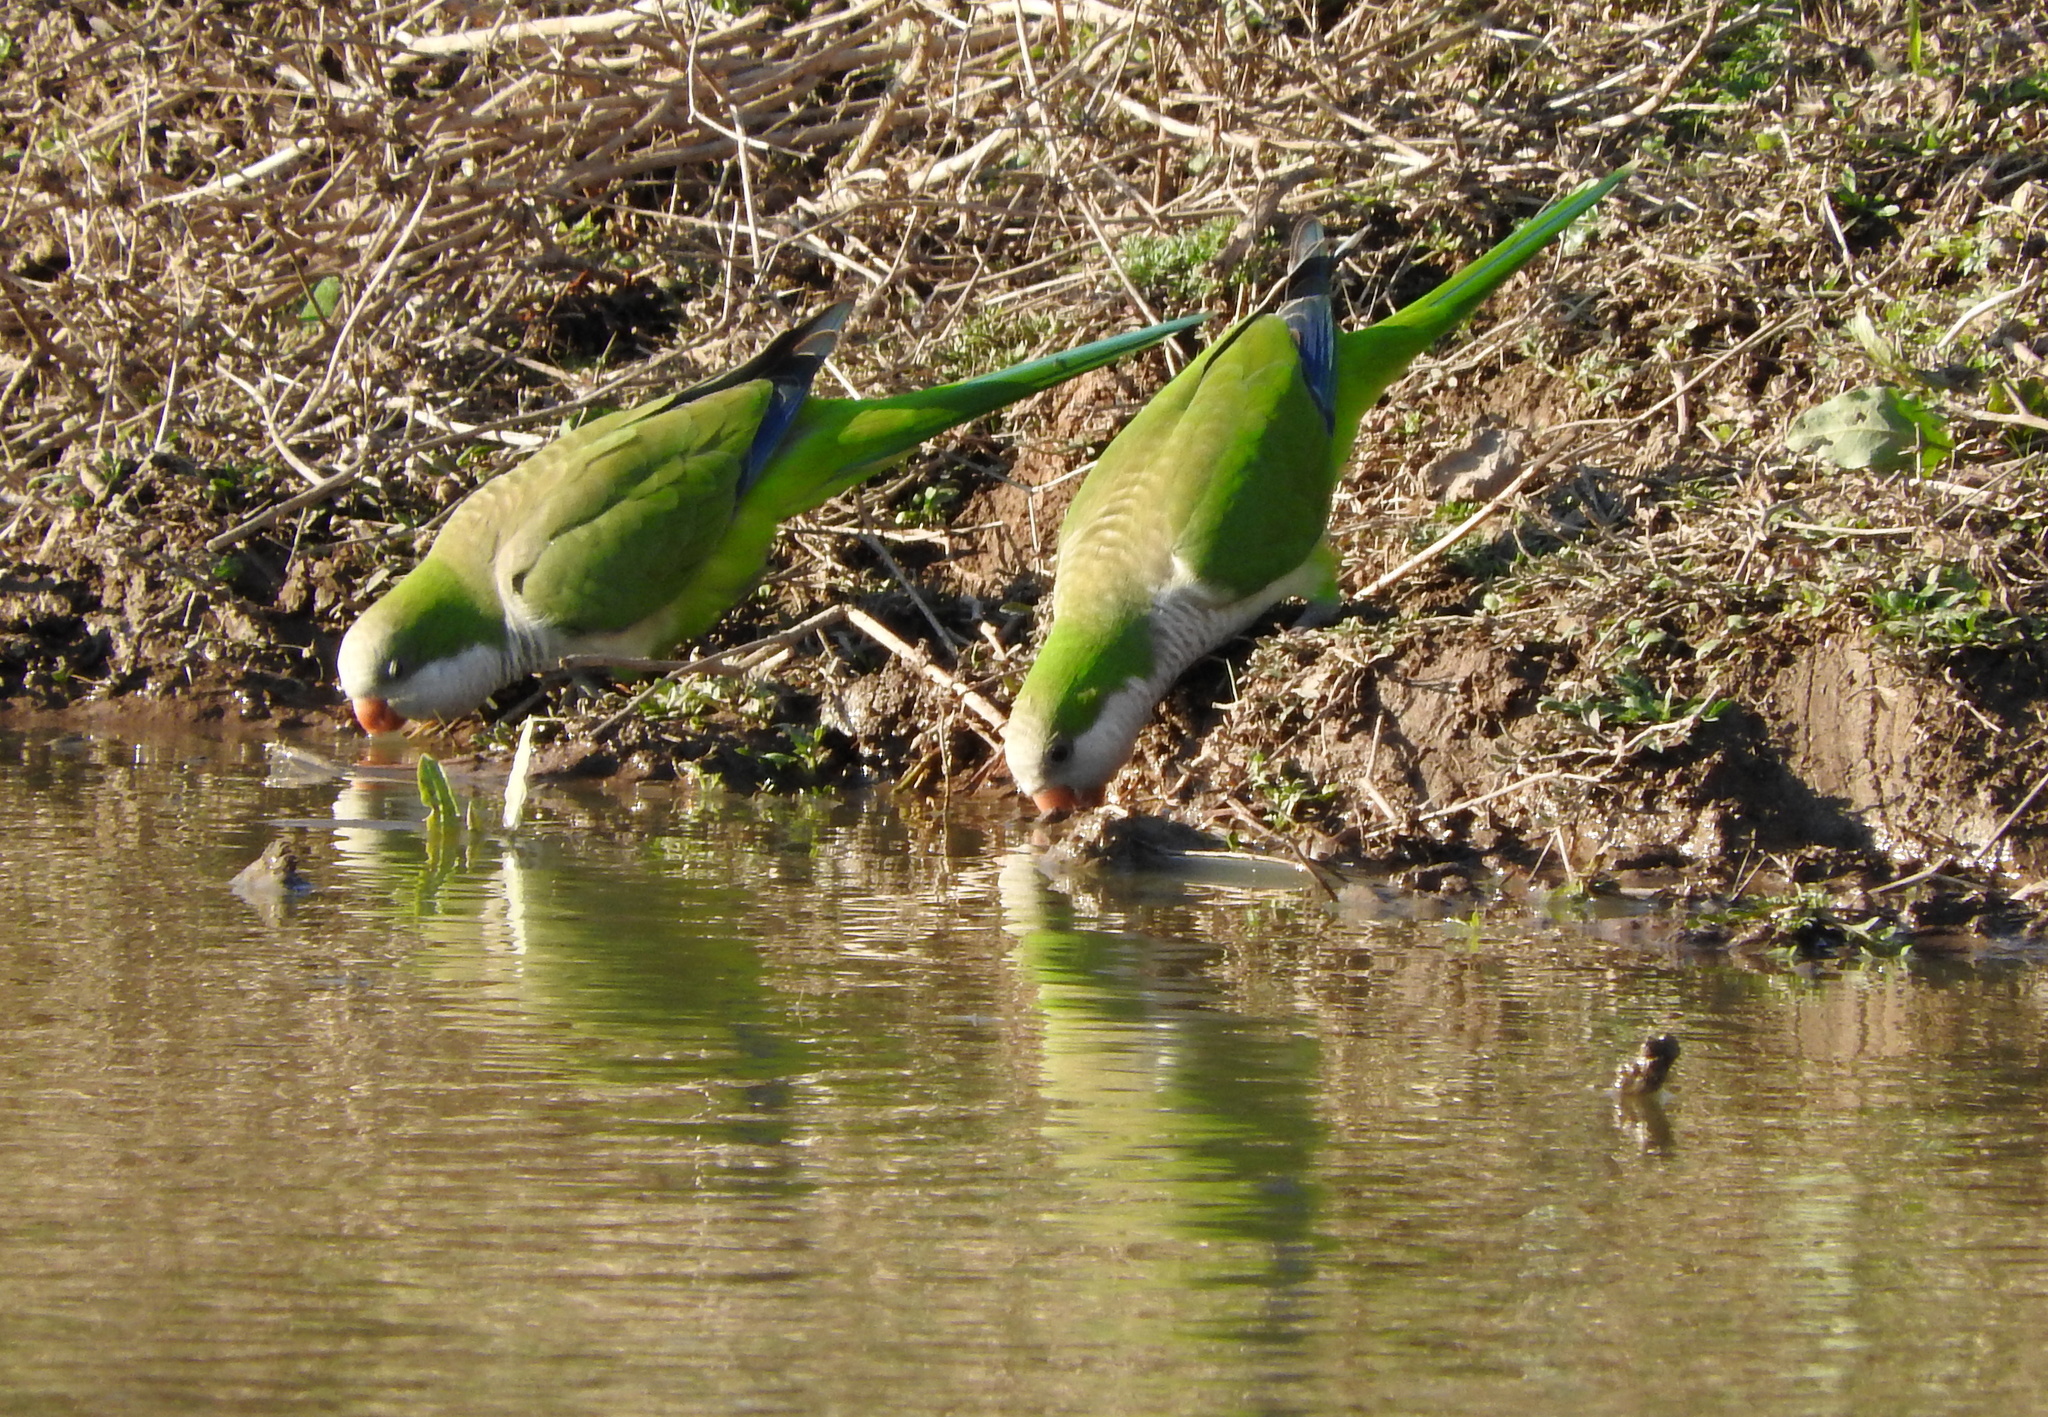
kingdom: Animalia
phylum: Chordata
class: Aves
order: Psittaciformes
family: Psittacidae
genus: Myiopsitta
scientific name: Myiopsitta monachus
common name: Monk parakeet
